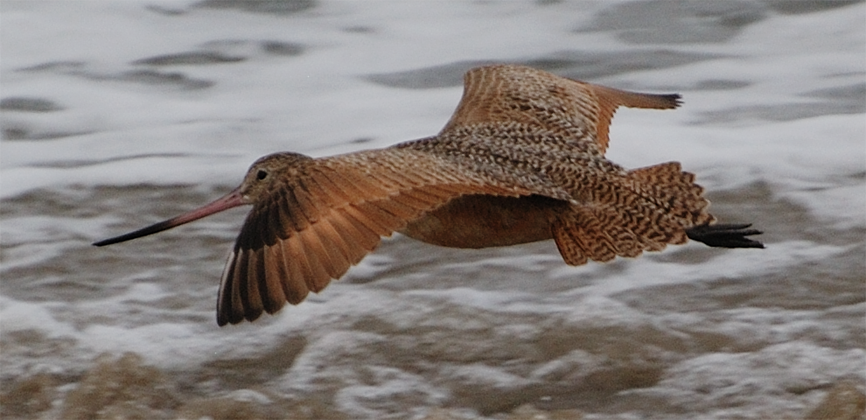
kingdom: Animalia
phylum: Chordata
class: Aves
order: Charadriiformes
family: Scolopacidae
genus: Limosa
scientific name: Limosa fedoa
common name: Marbled godwit
